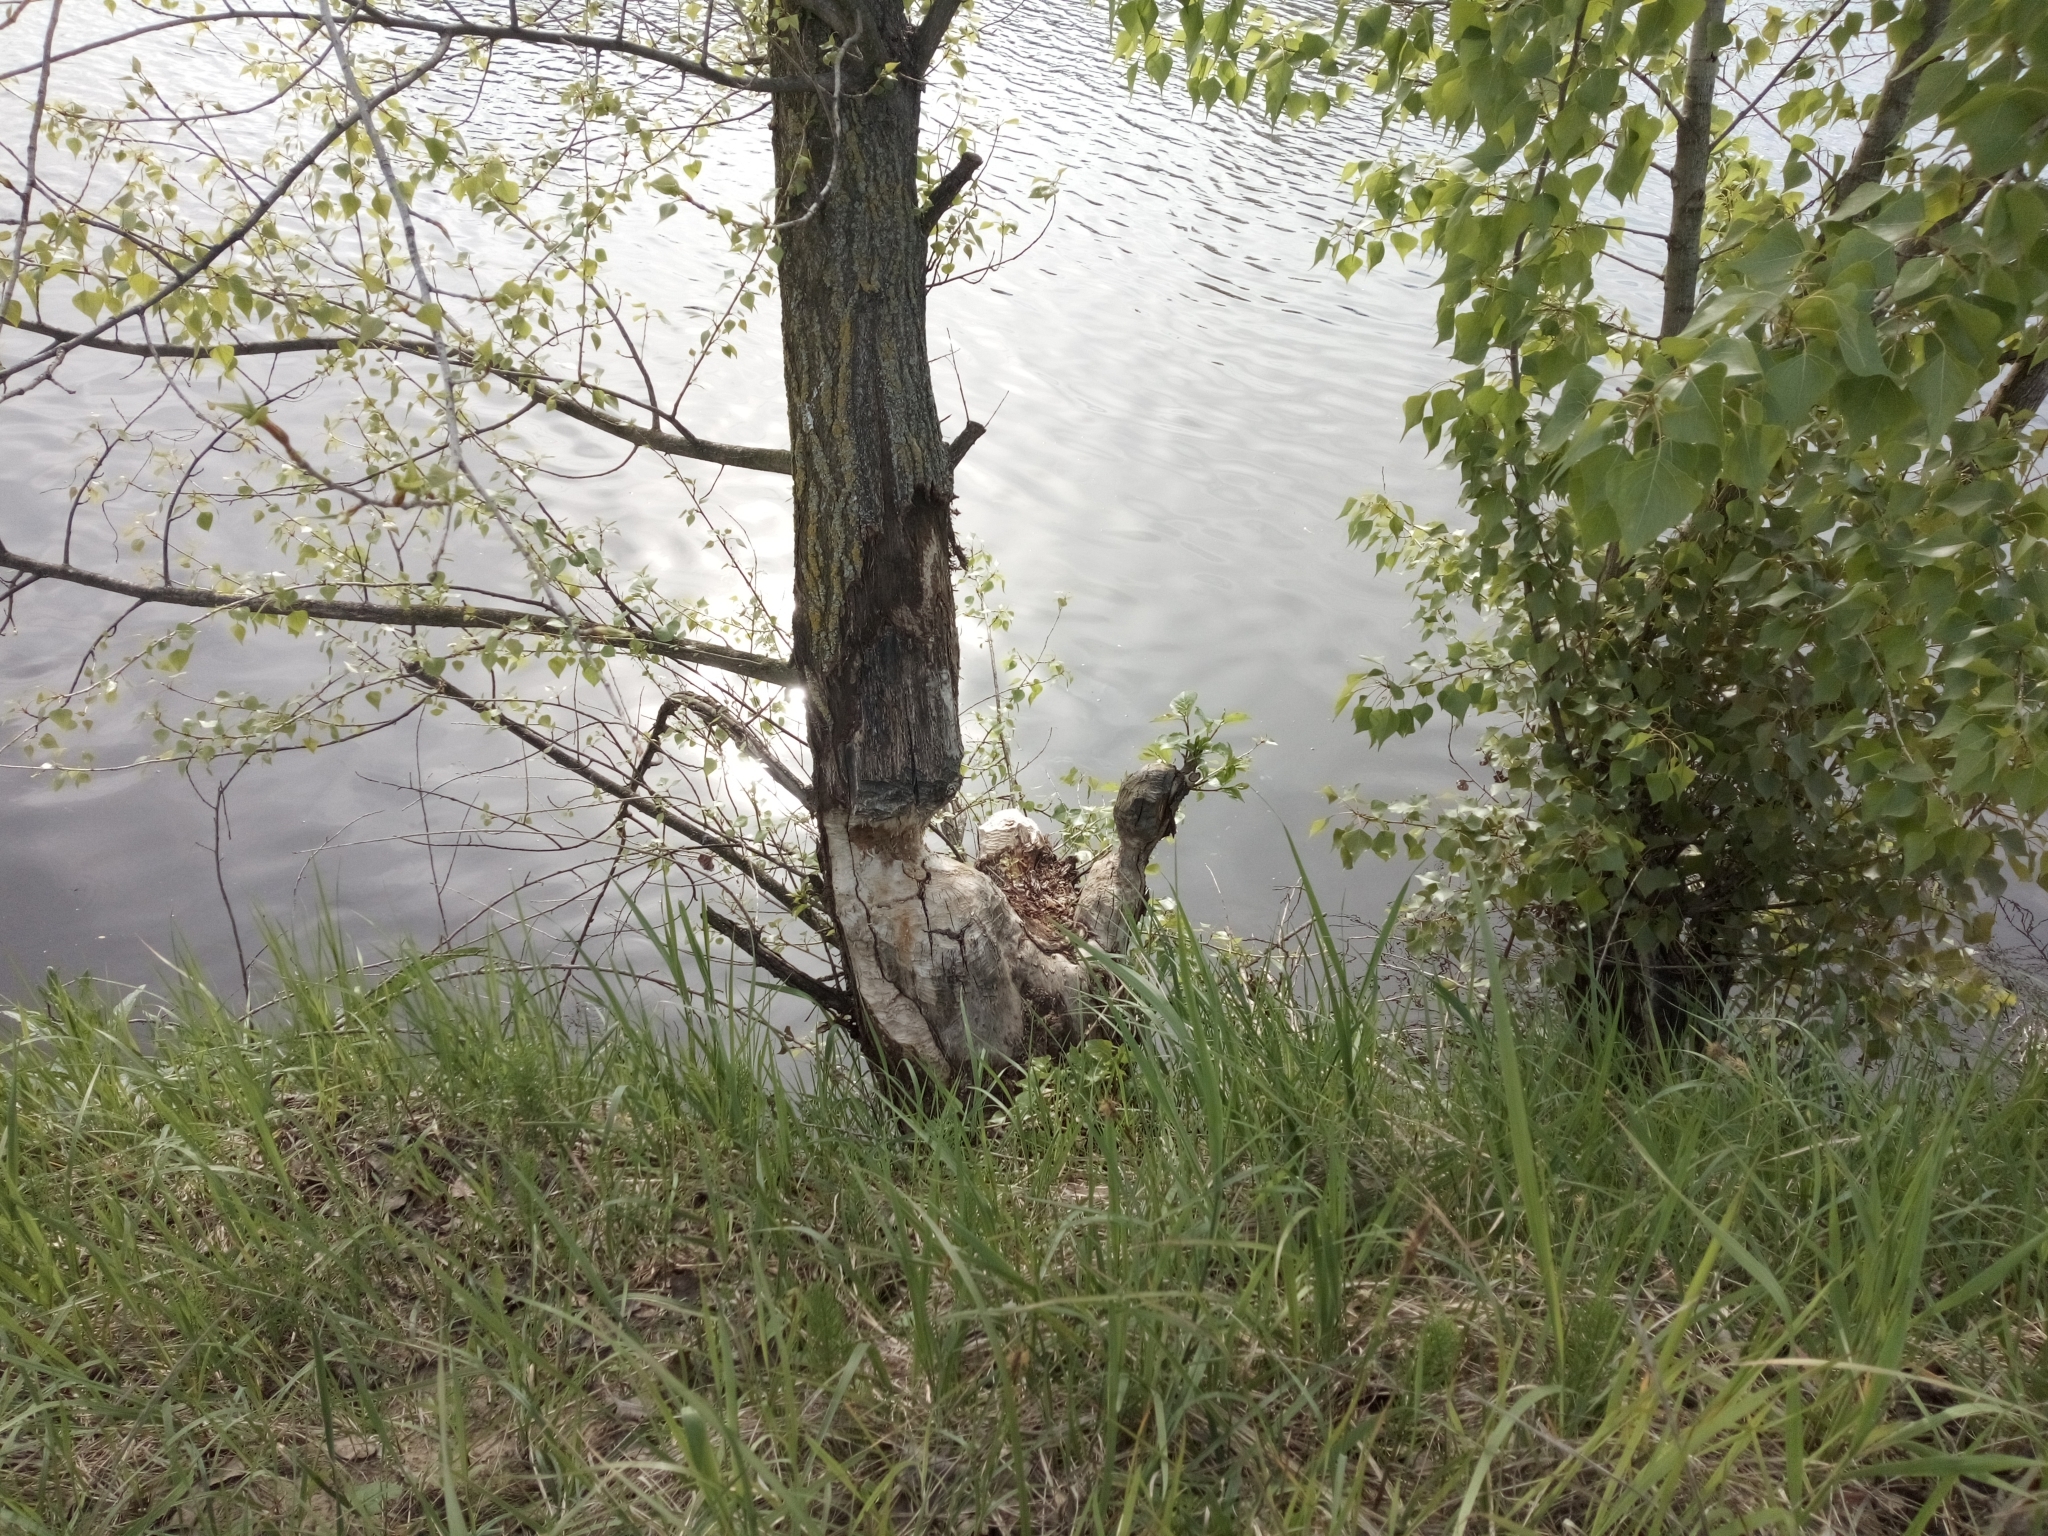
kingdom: Animalia
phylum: Chordata
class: Mammalia
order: Rodentia
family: Castoridae
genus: Castor
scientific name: Castor fiber
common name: Eurasian beaver
